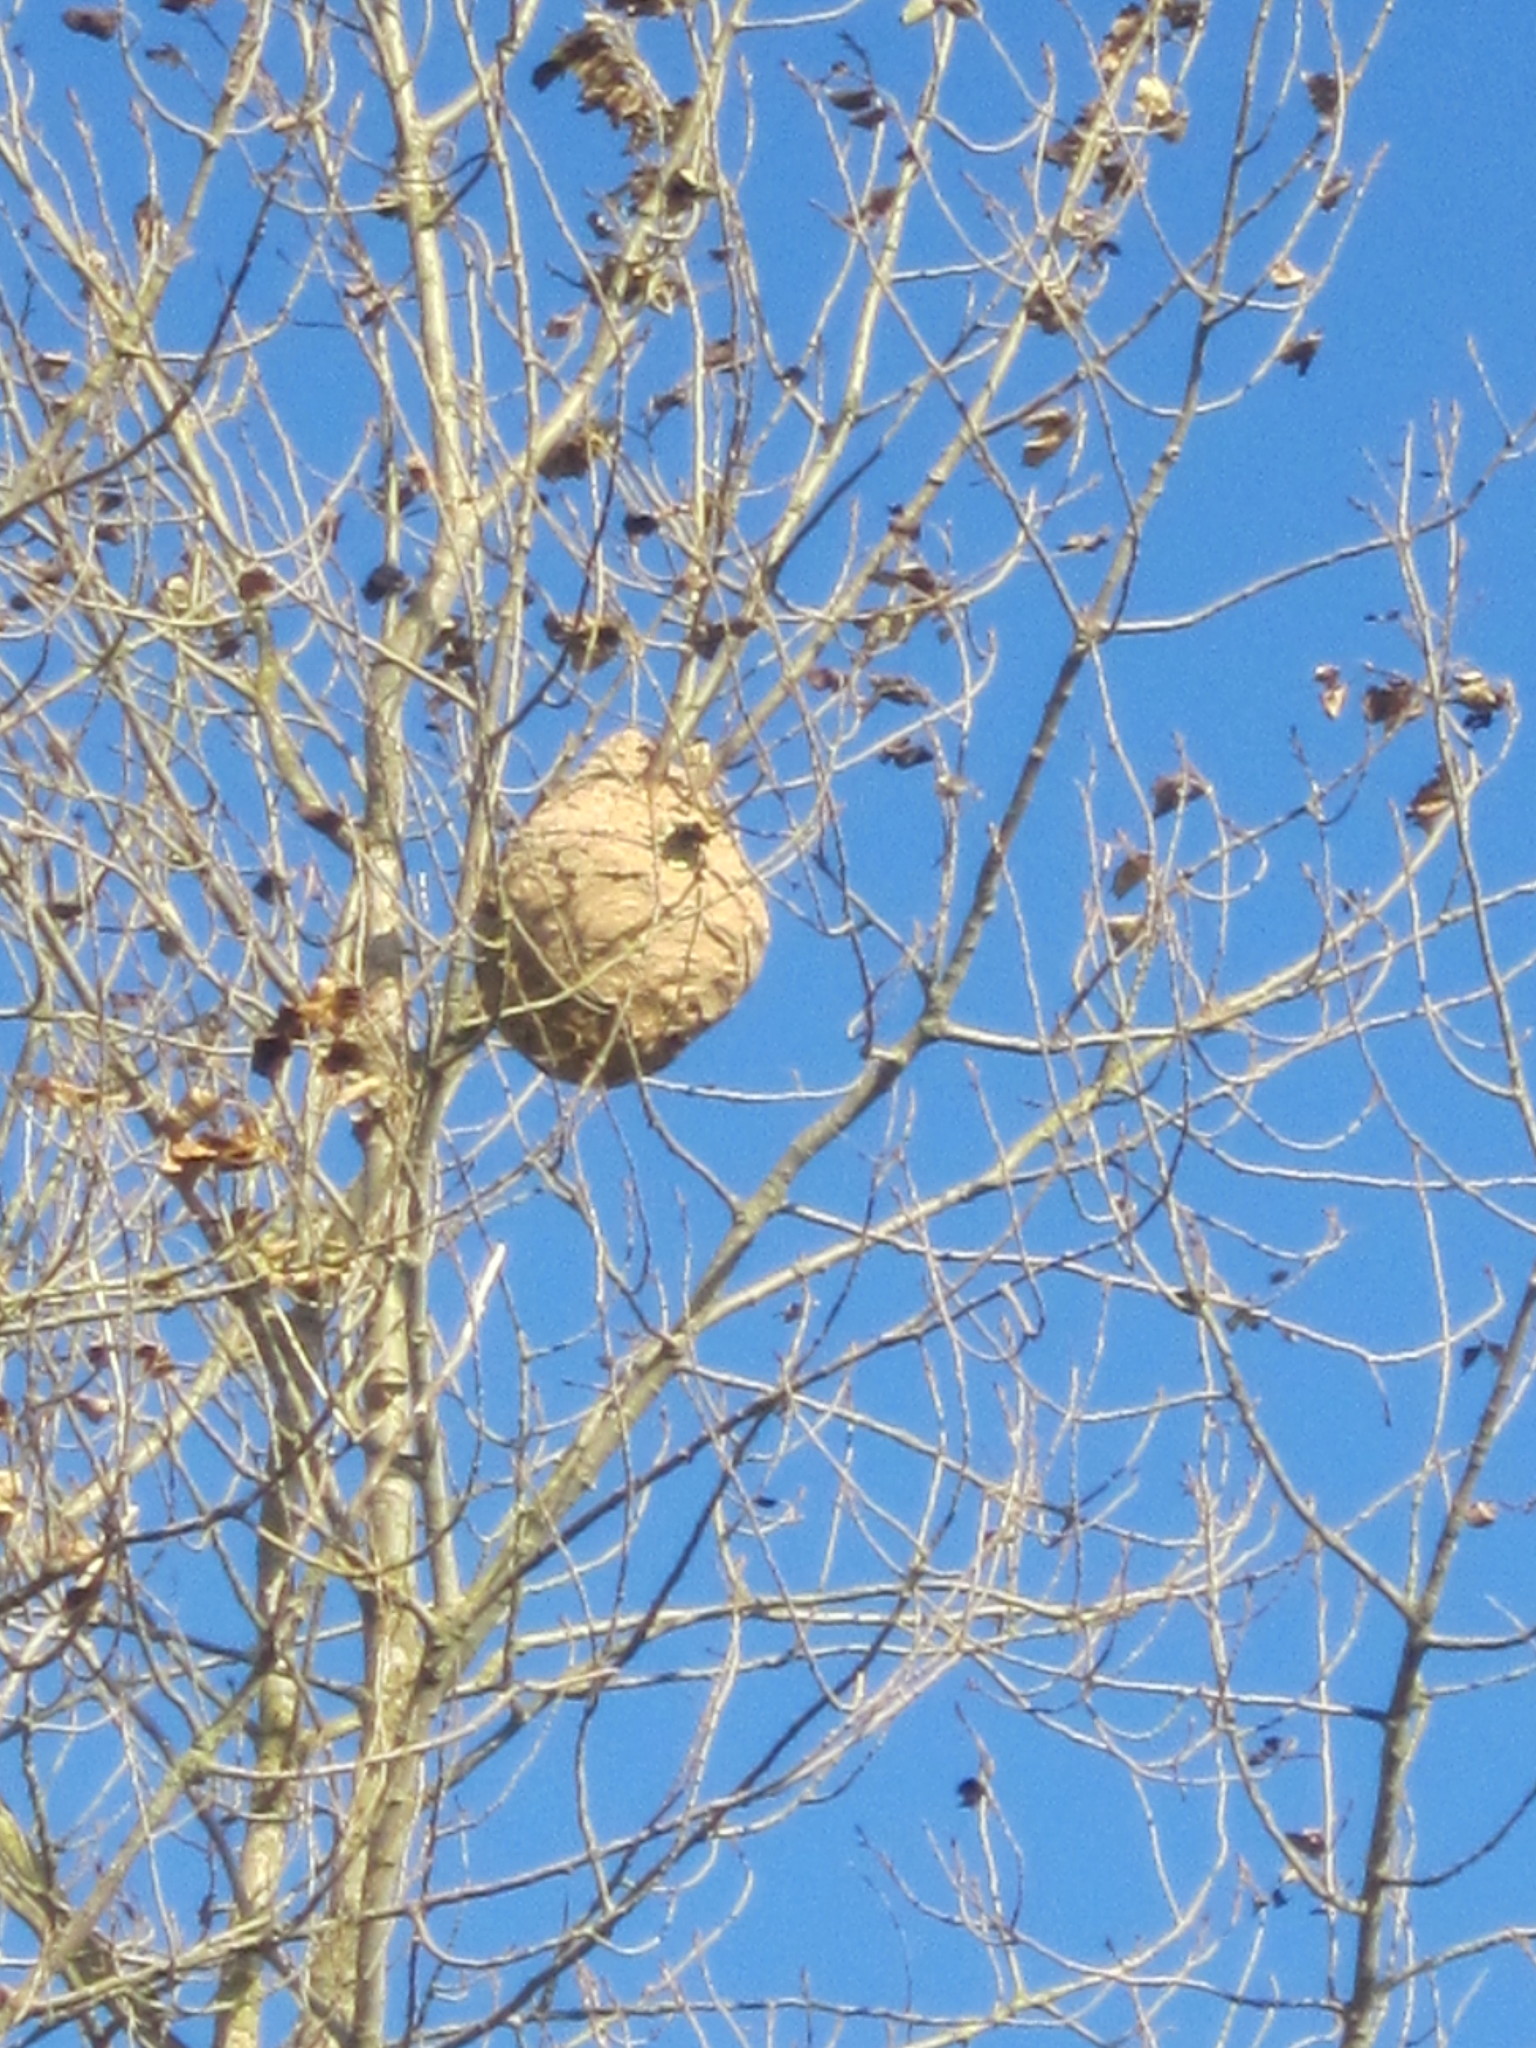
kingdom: Animalia
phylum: Arthropoda
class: Insecta
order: Hymenoptera
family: Vespidae
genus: Vespa
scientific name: Vespa velutina
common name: Asian hornet
